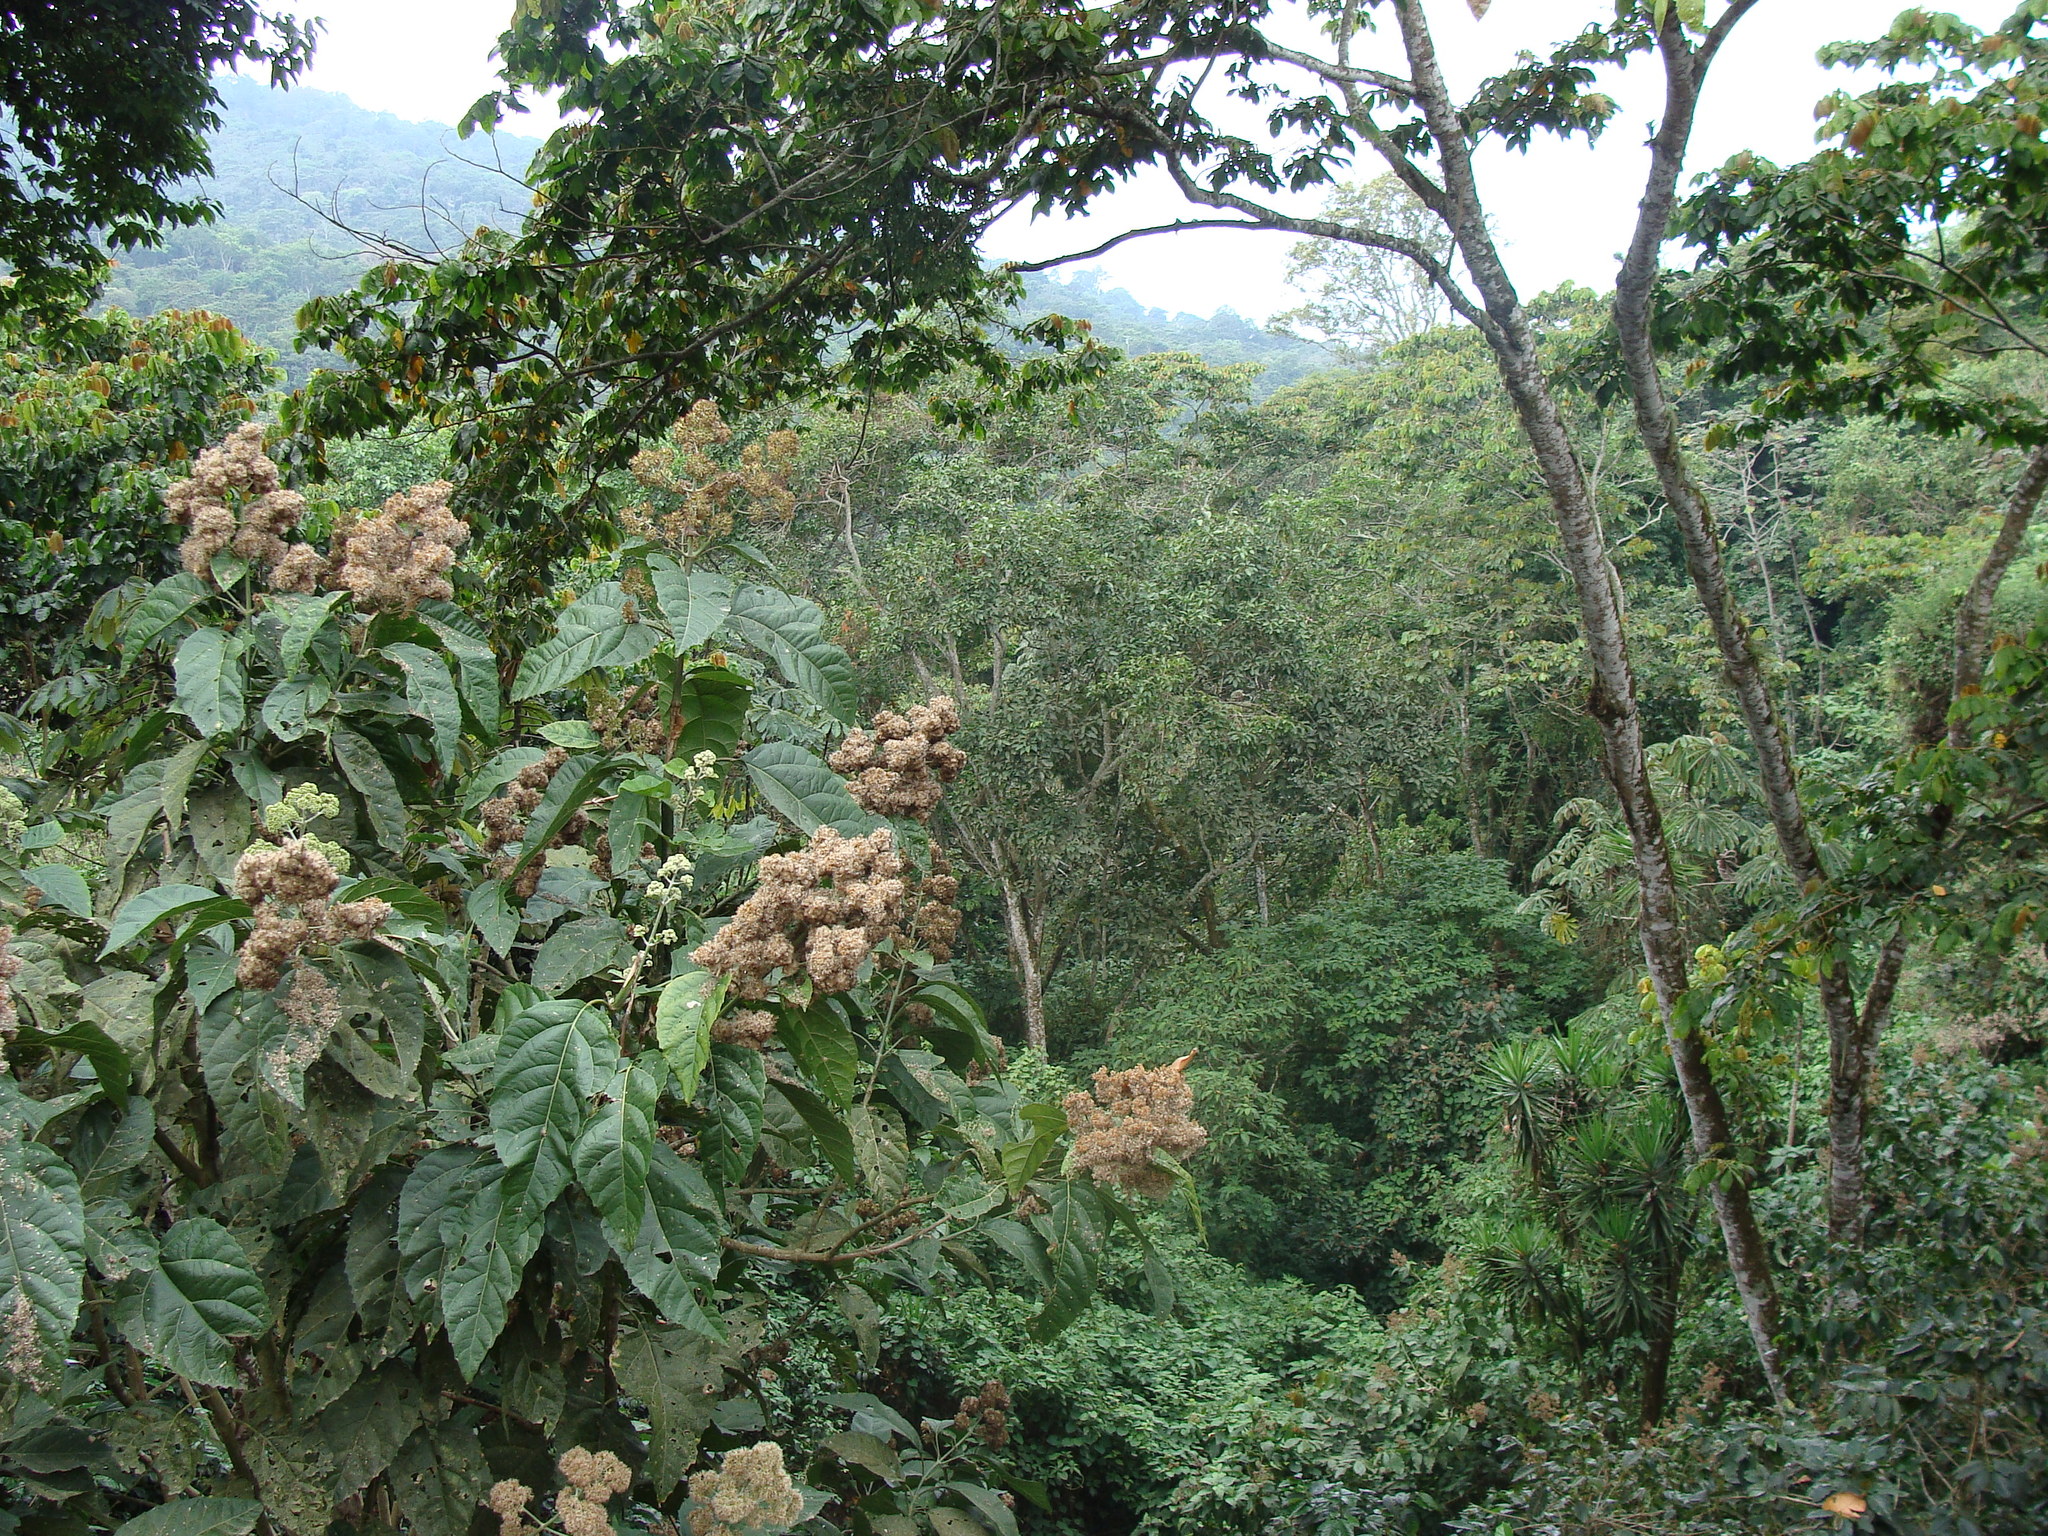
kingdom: Plantae
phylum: Tracheophyta
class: Magnoliopsida
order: Asterales
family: Asteraceae
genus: Critonia
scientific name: Critonia morifolia
